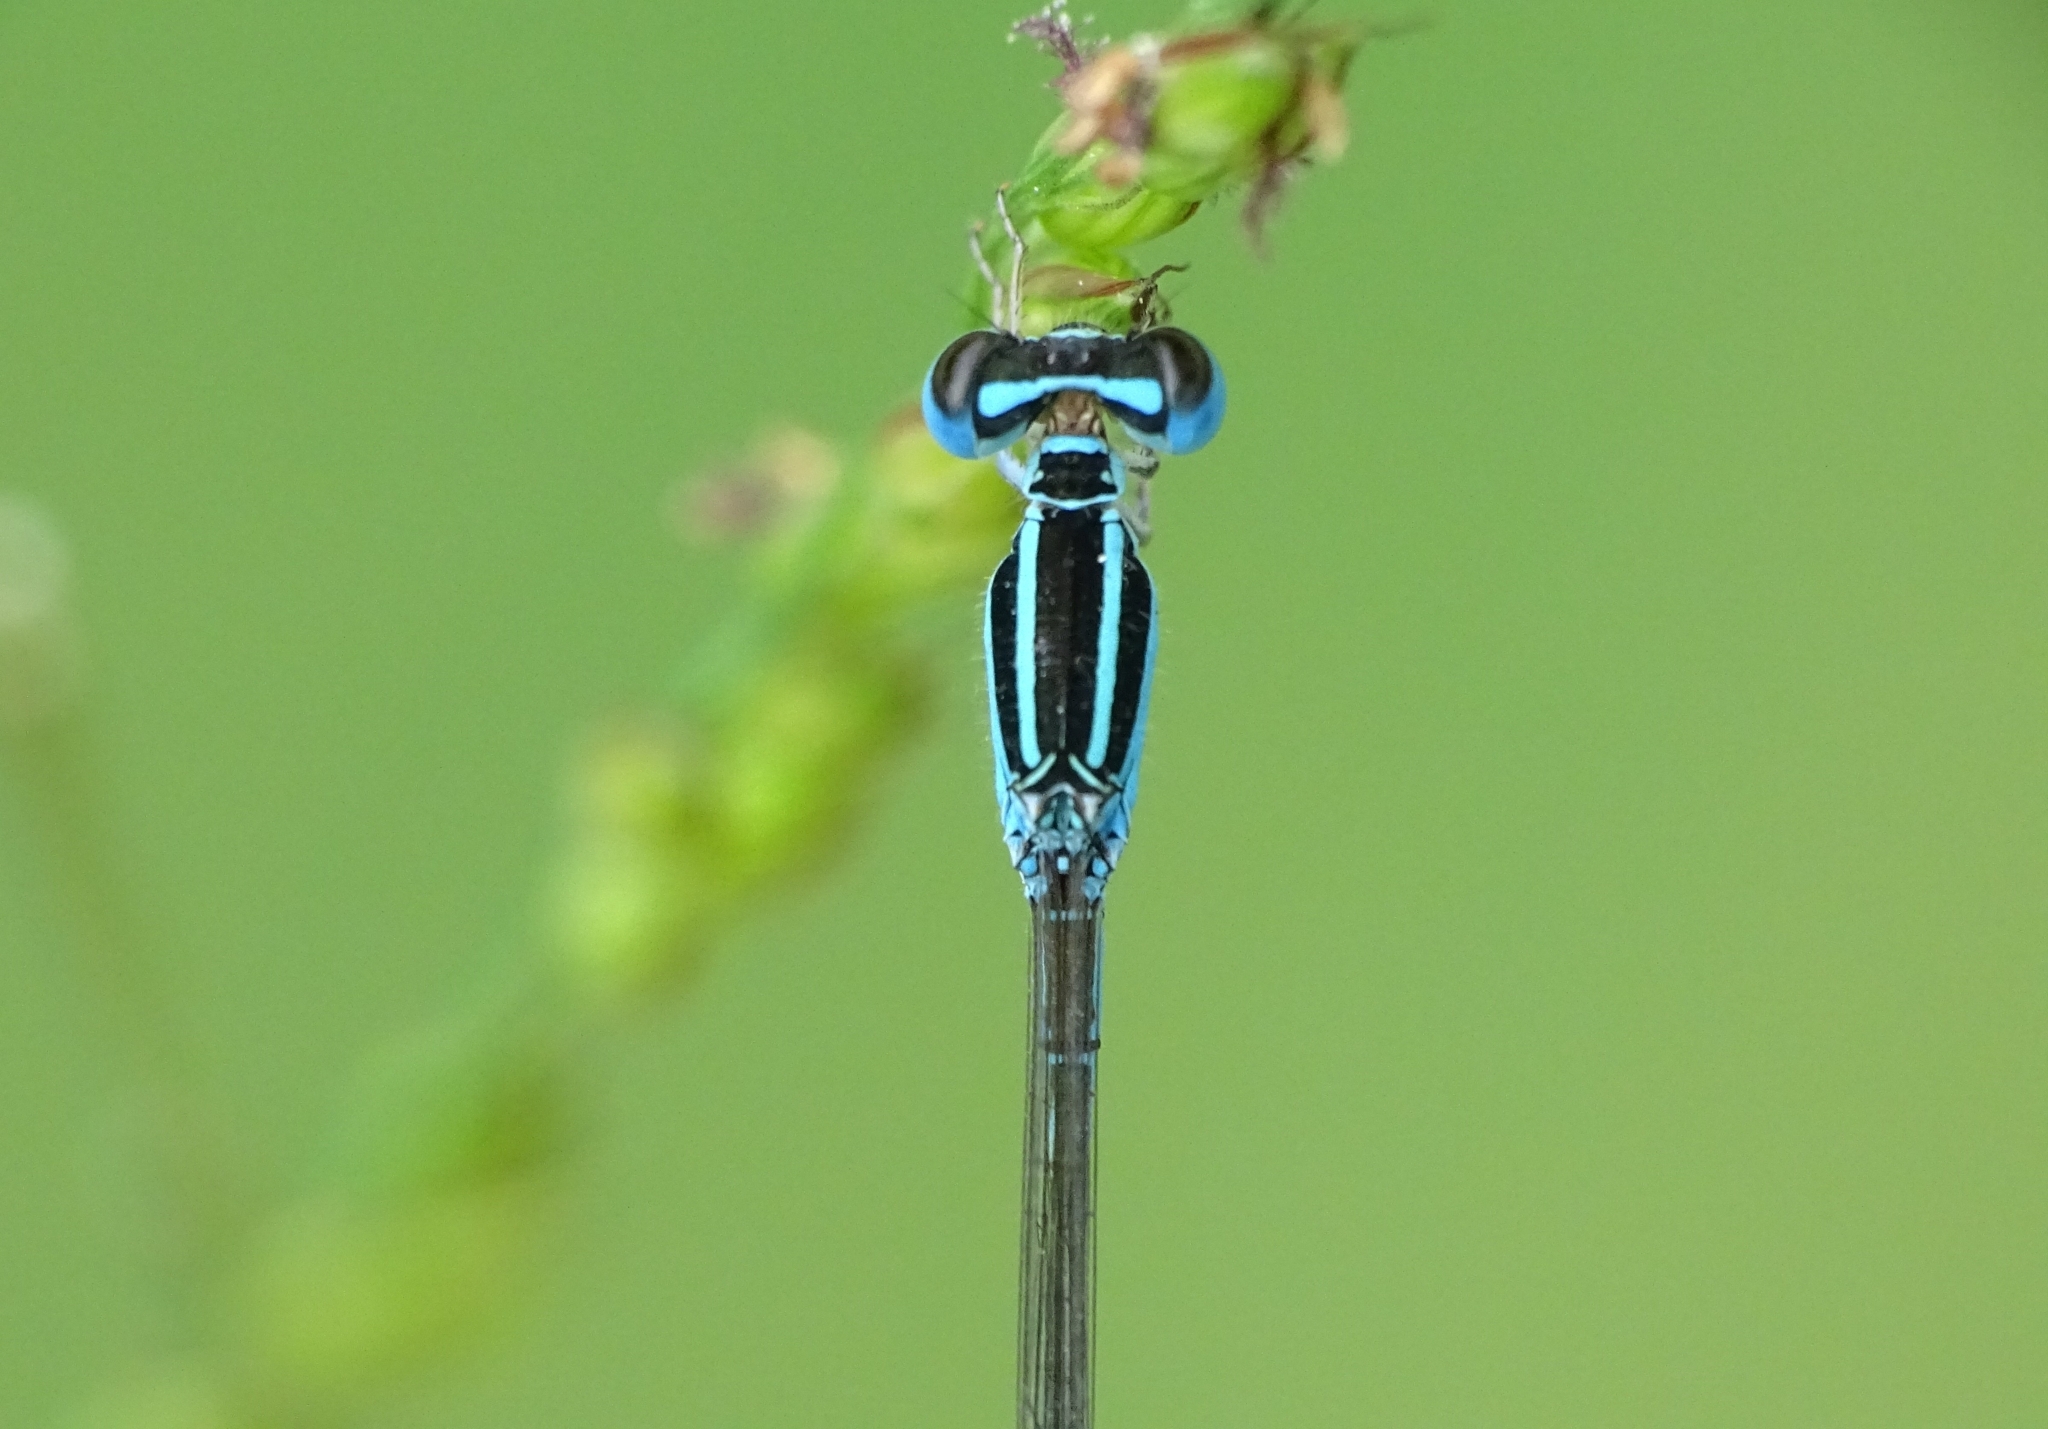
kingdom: Animalia
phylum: Arthropoda
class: Insecta
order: Odonata
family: Coenagrionidae
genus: Aciagrion
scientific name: Aciagrion occidentale
